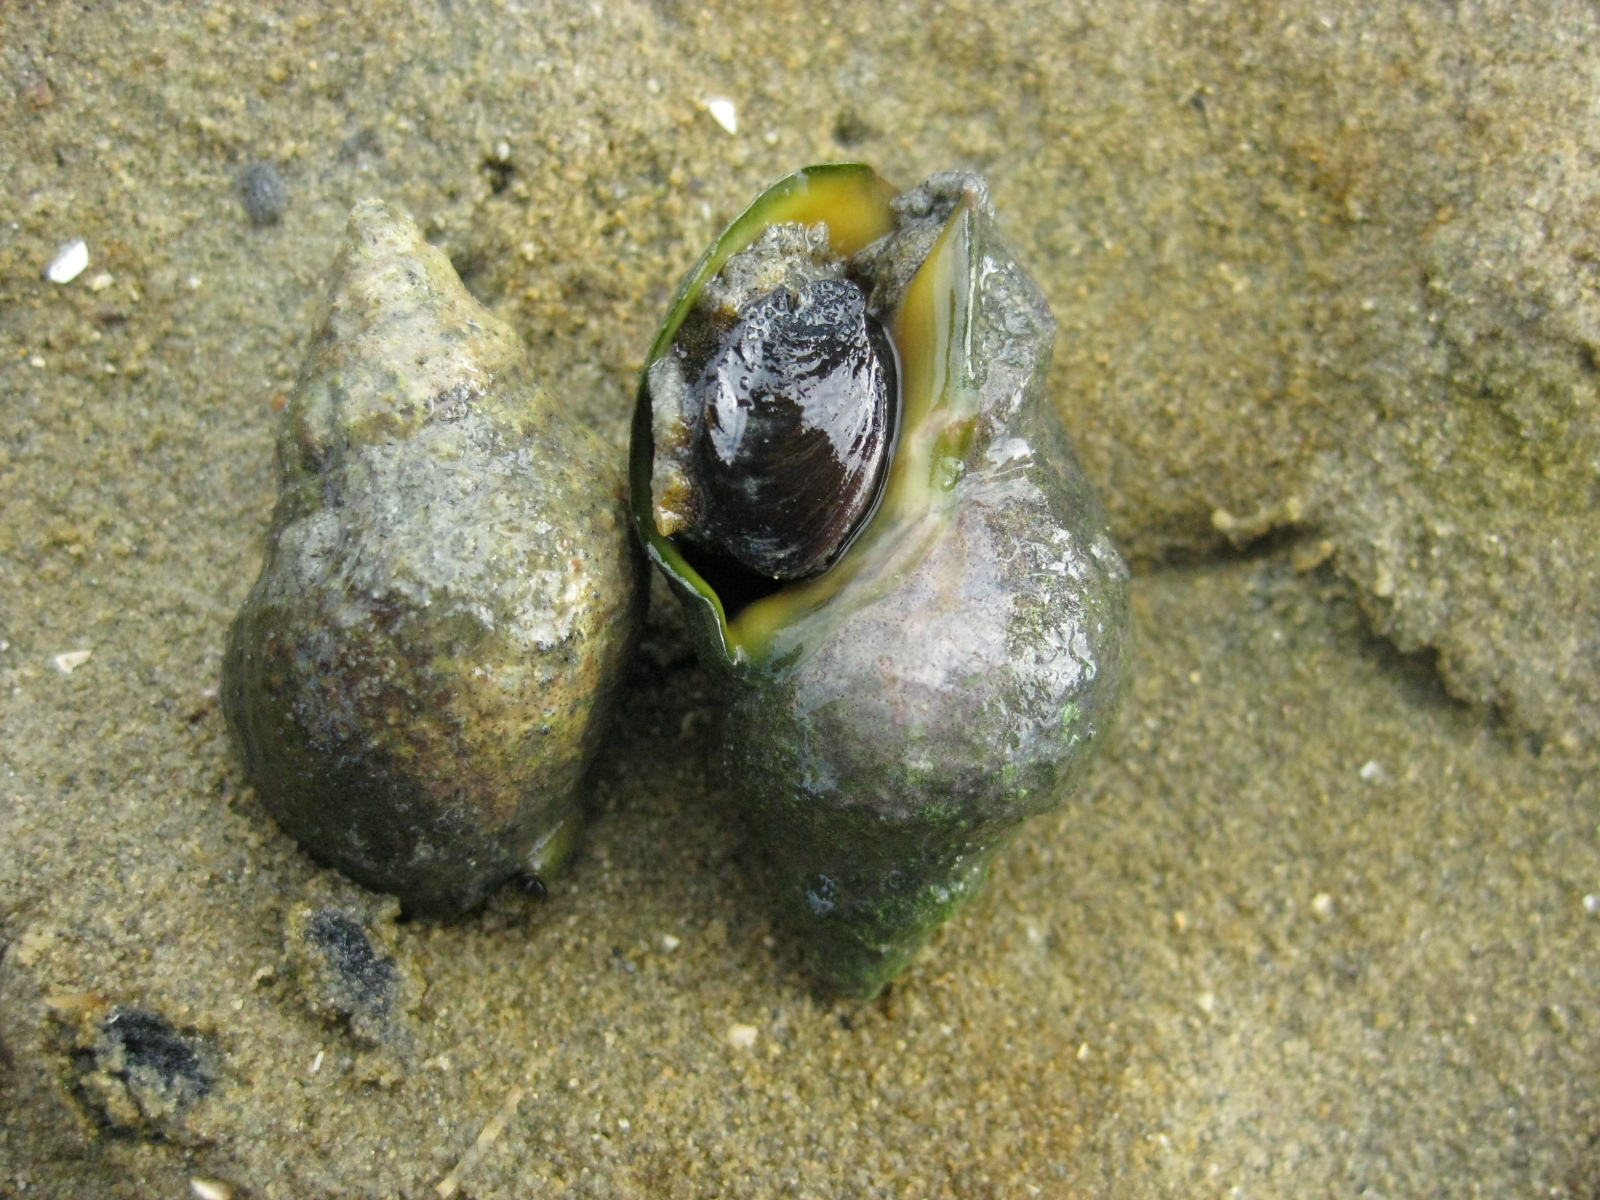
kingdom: Animalia
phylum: Mollusca
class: Gastropoda
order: Neogastropoda
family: Cominellidae
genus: Cominella
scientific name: Cominella adspersa
